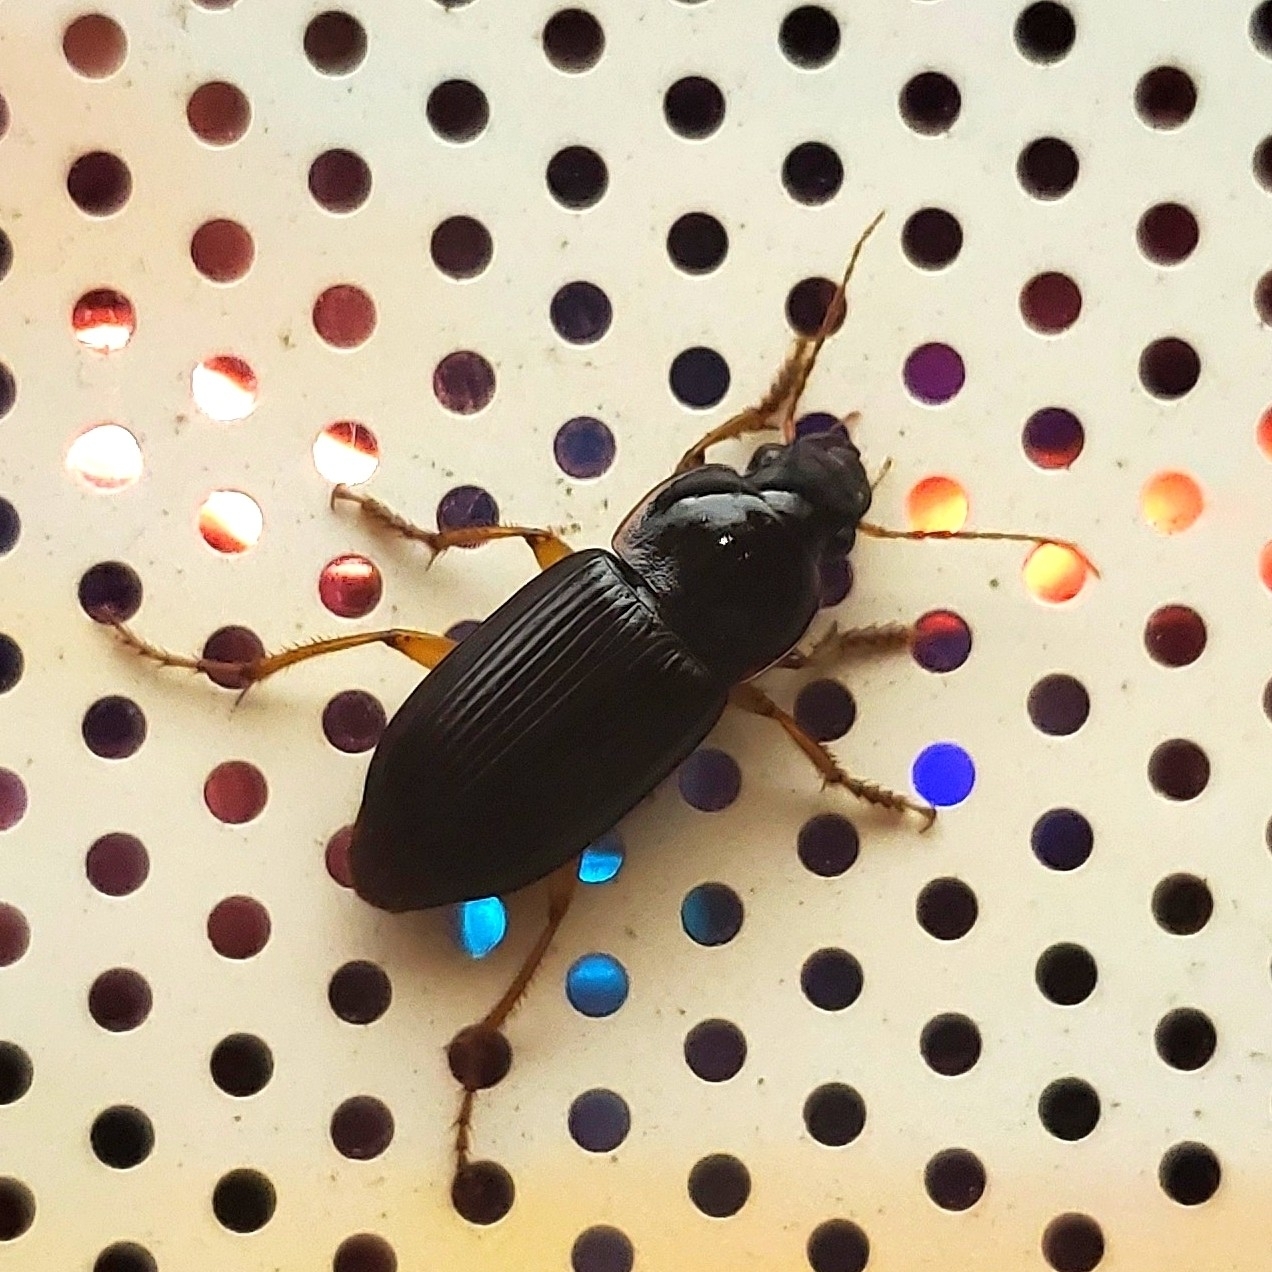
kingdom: Animalia
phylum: Arthropoda
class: Insecta
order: Coleoptera
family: Carabidae
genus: Harpalus
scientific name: Harpalus pensylvanicus
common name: Pennsylvania dingy ground beetle
